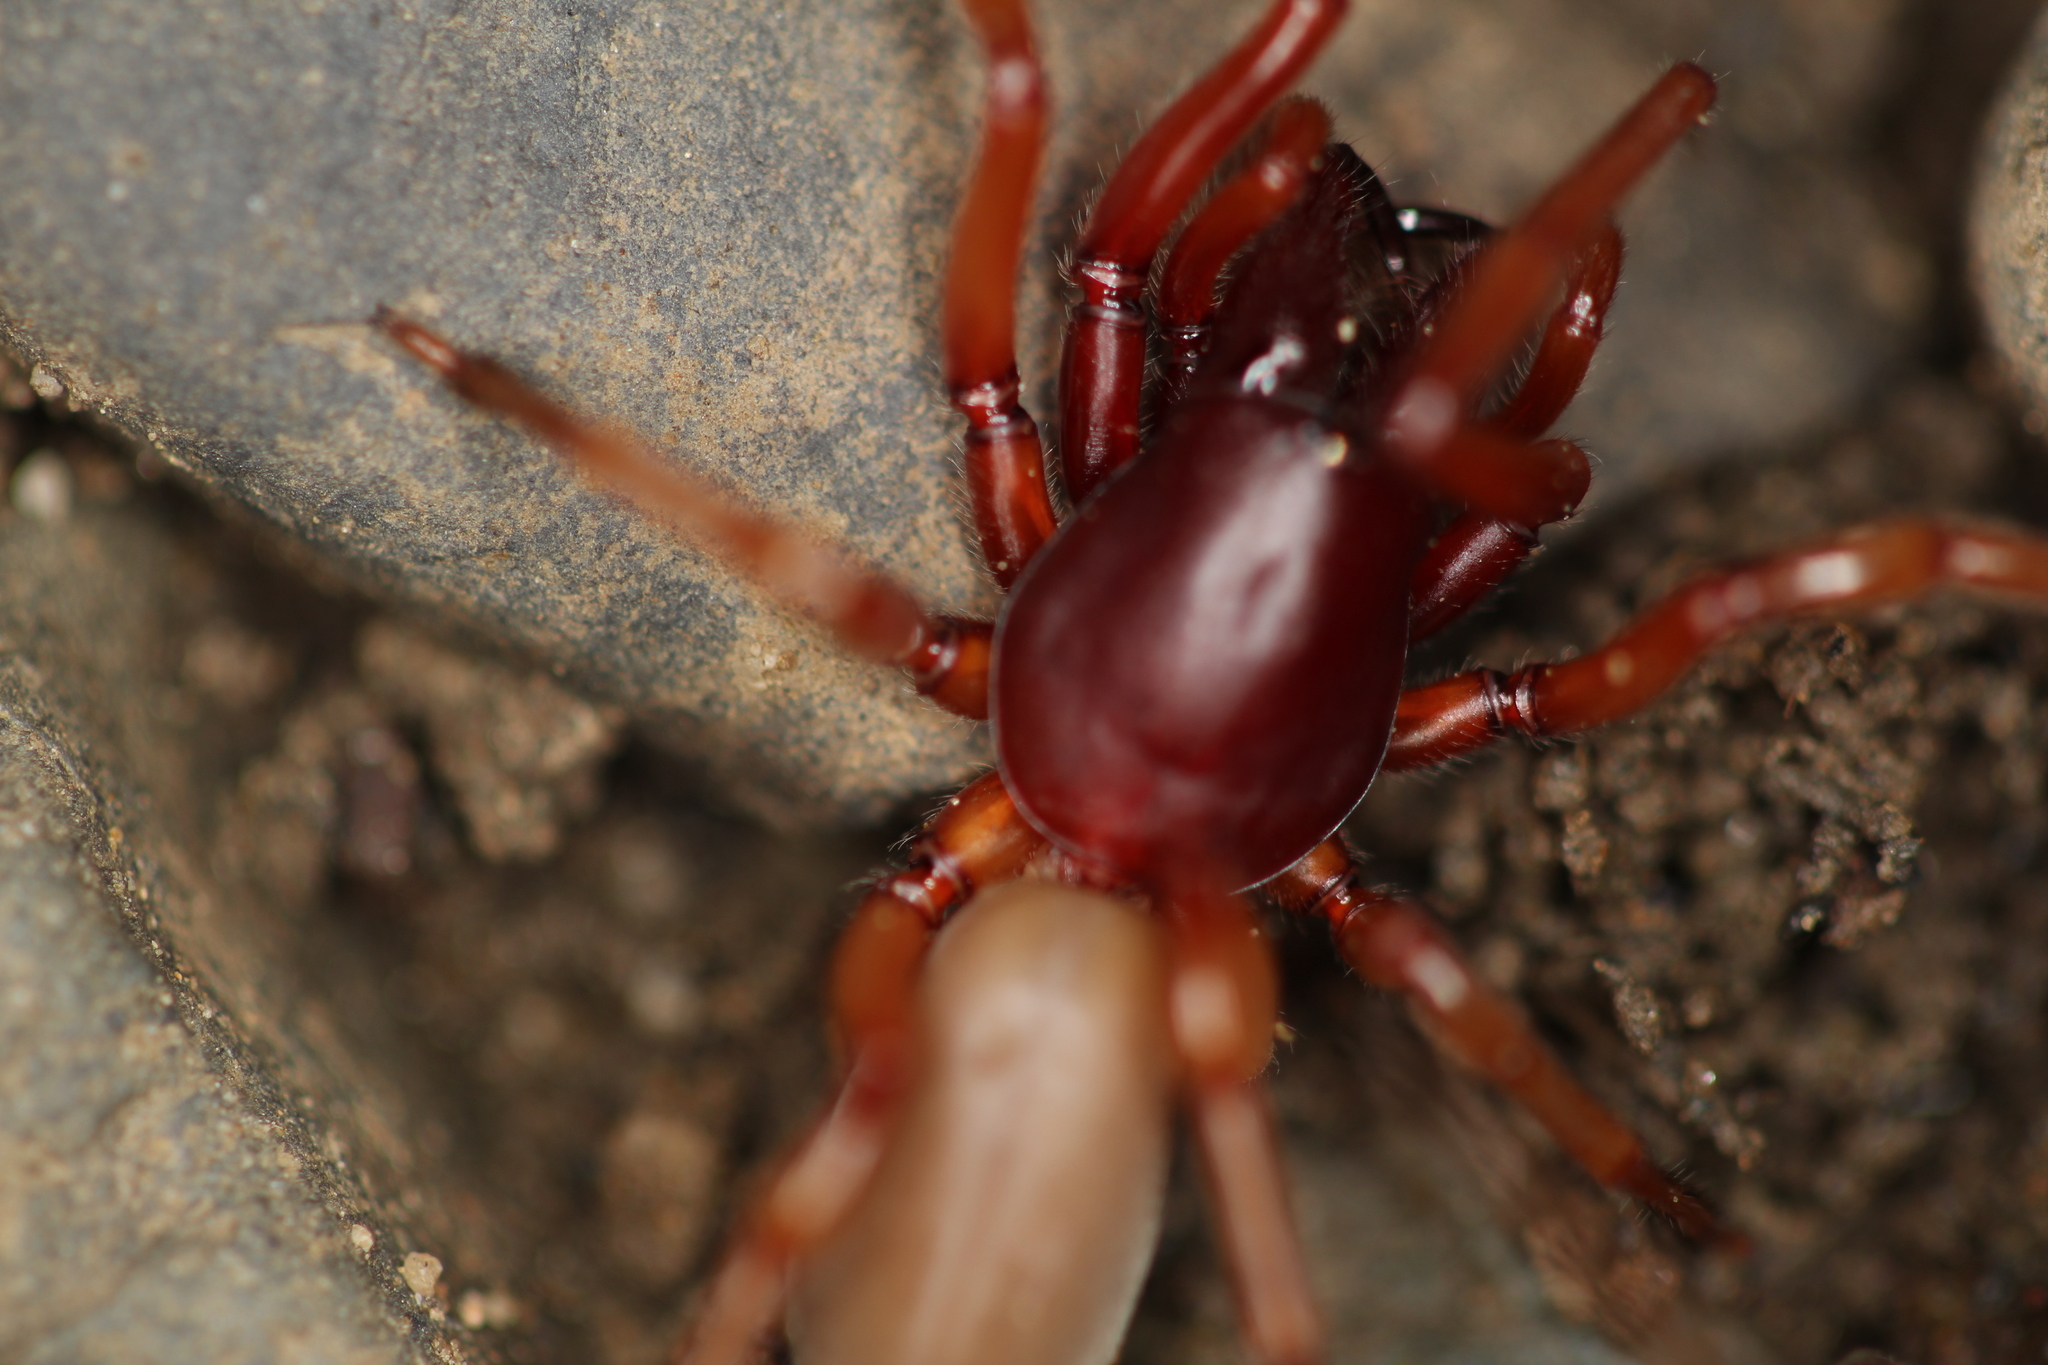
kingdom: Animalia
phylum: Arthropoda
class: Arachnida
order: Araneae
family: Dysderidae
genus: Dysdera
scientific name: Dysdera crocata
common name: Woodlouse spider
